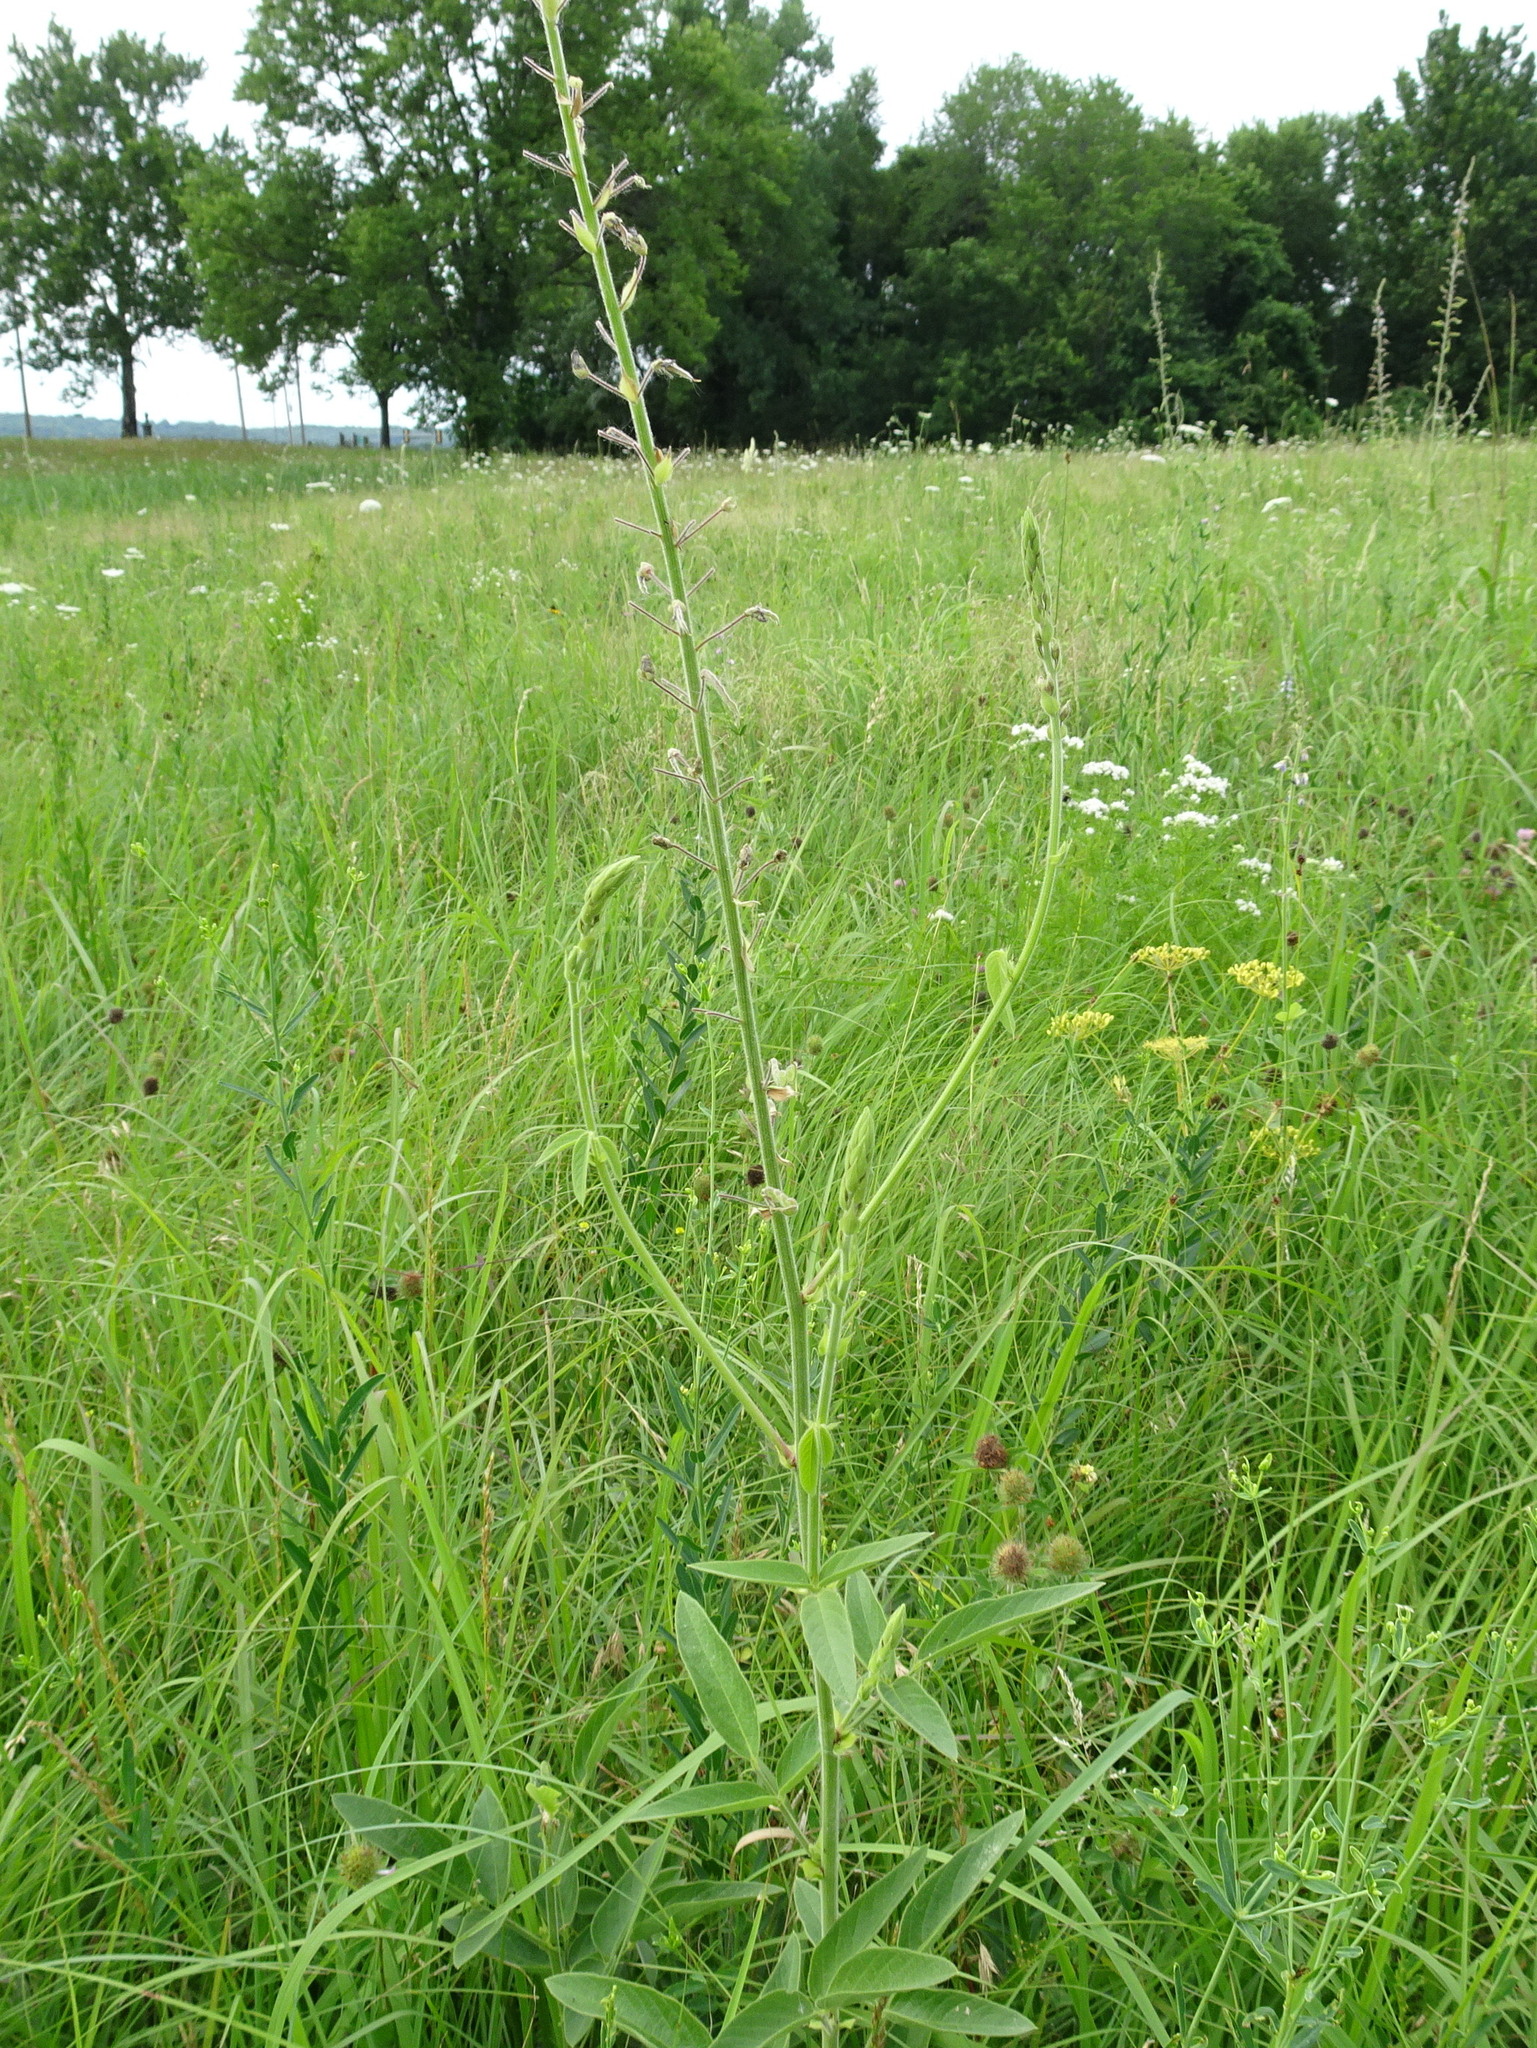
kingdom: Plantae
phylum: Tracheophyta
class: Magnoliopsida
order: Fabales
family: Fabaceae
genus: Desmodium
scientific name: Desmodium illinoense
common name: Illinois tick-clover
